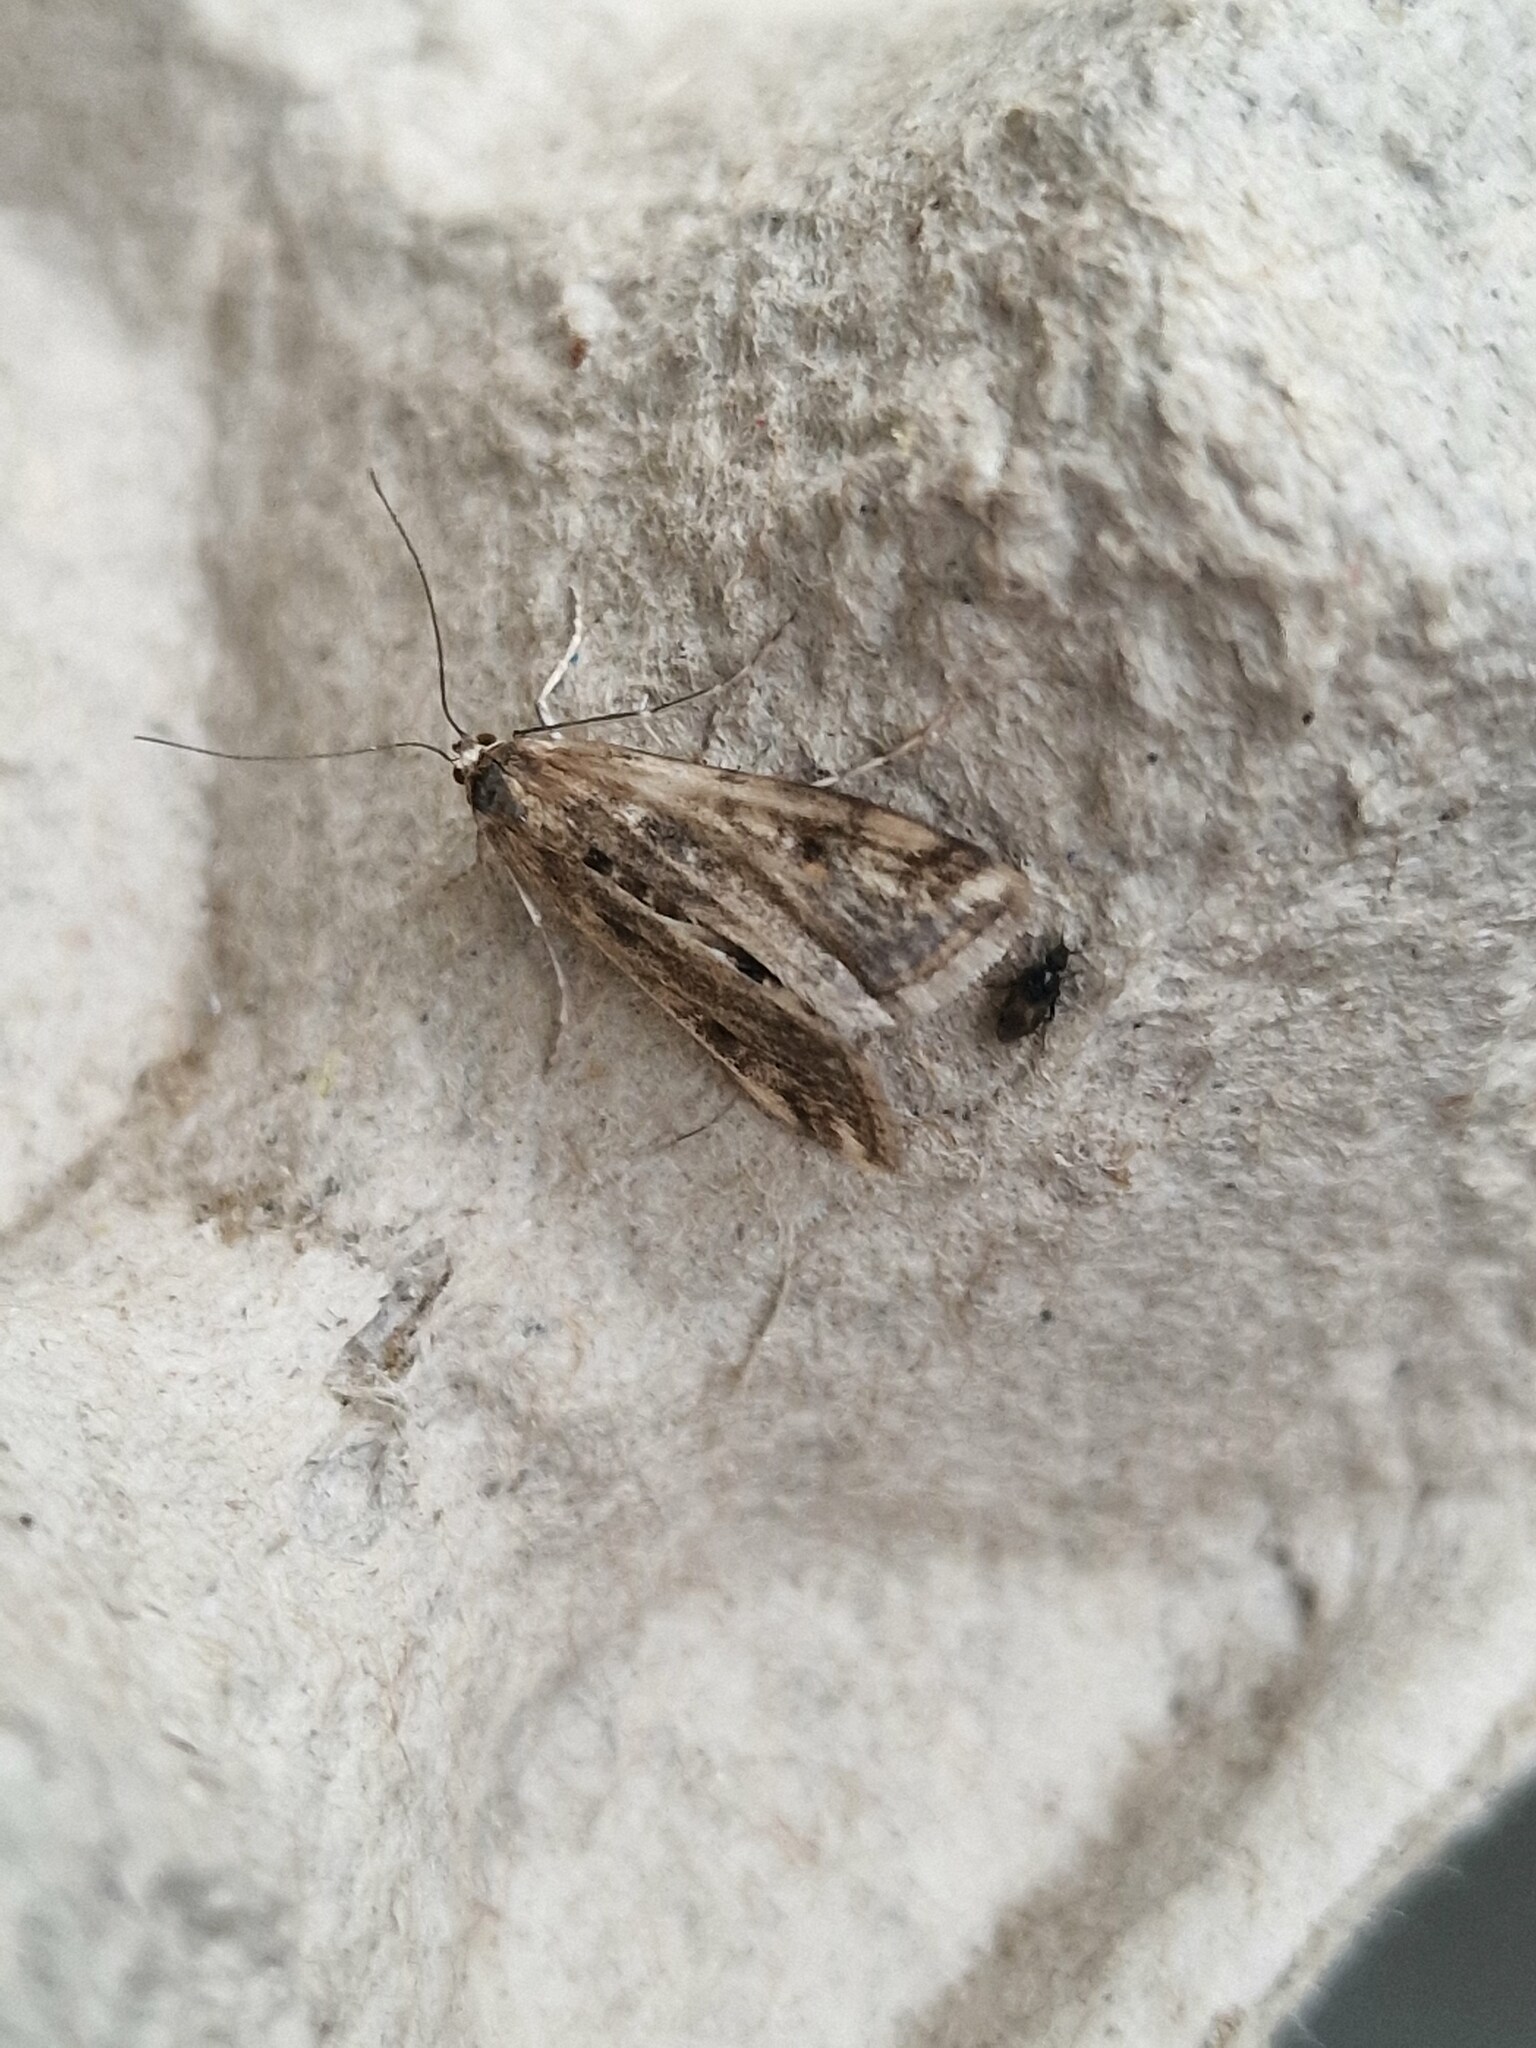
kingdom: Animalia
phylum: Arthropoda
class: Insecta
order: Lepidoptera
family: Crambidae
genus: Cataclysta
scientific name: Cataclysta lemnata
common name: Small china-mark
